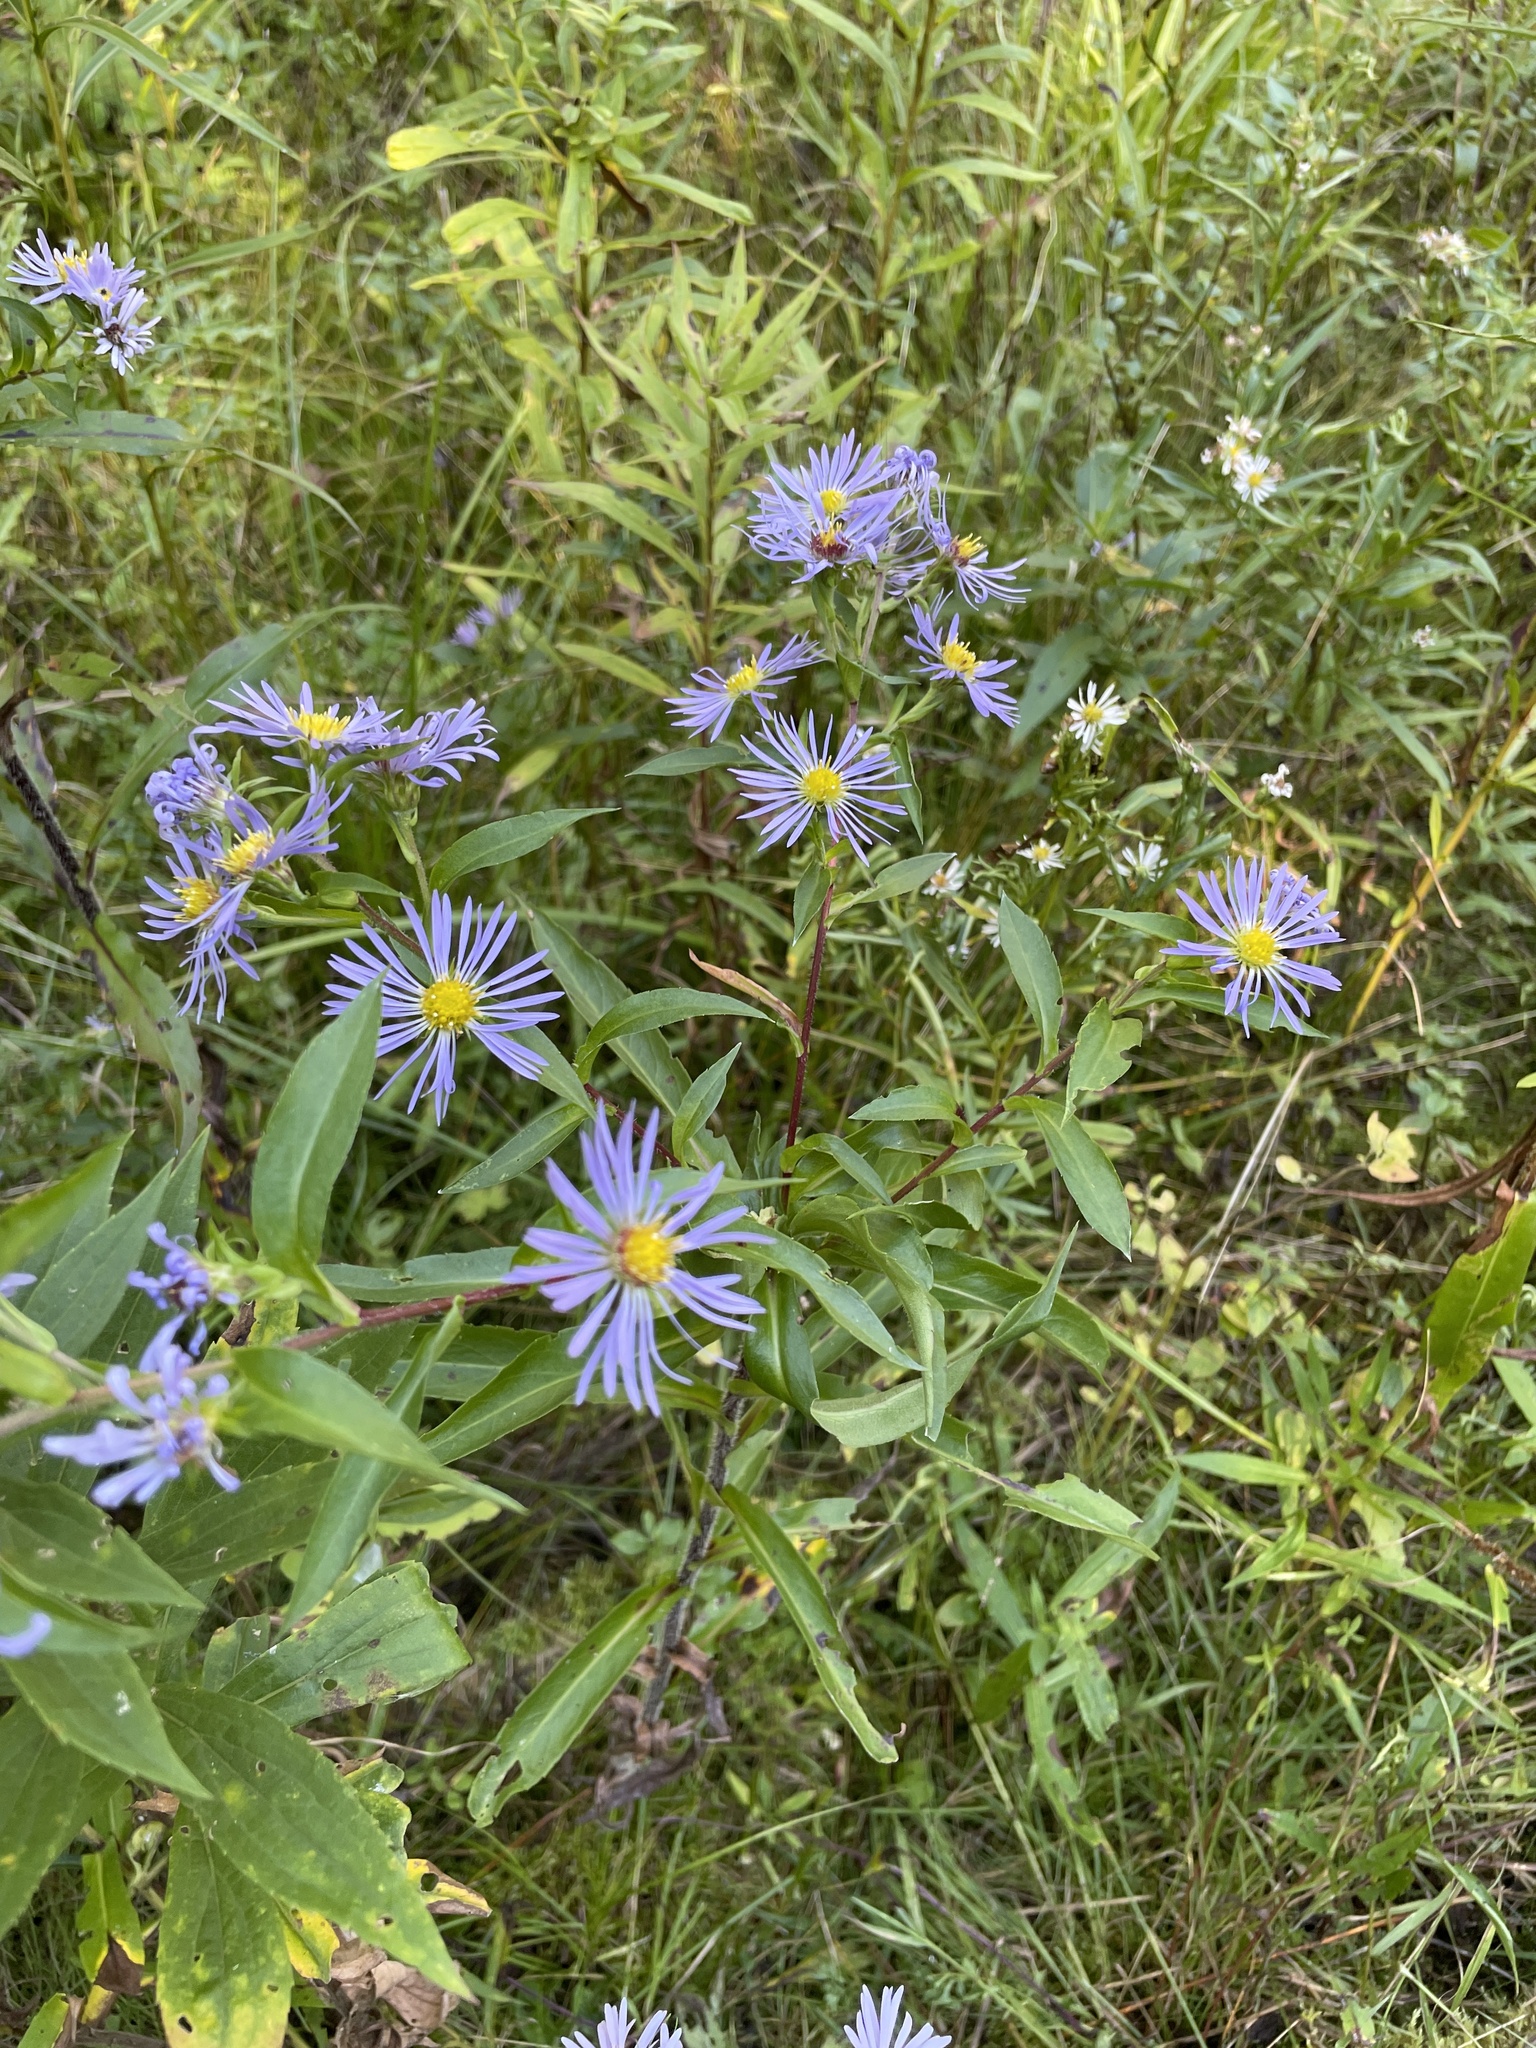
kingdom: Plantae
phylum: Tracheophyta
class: Magnoliopsida
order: Asterales
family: Asteraceae
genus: Symphyotrichum
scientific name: Symphyotrichum puniceum
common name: Bog aster
